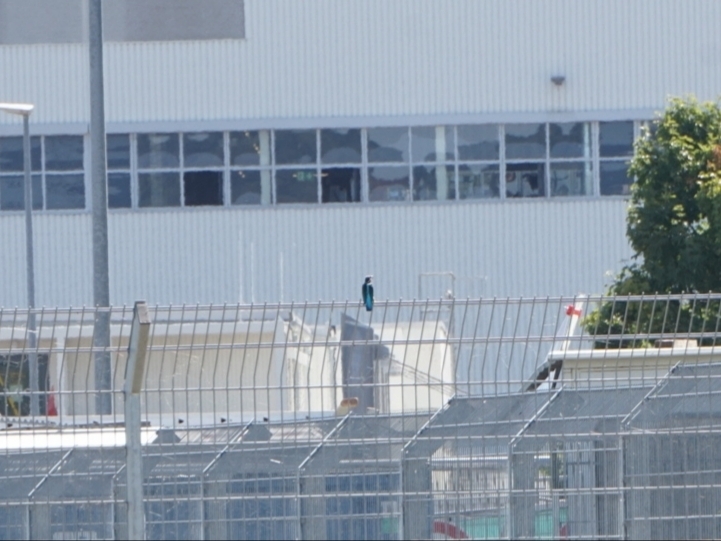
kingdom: Animalia
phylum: Chordata
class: Aves
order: Coraciiformes
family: Alcedinidae
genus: Alcedo
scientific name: Alcedo atthis
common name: Common kingfisher
